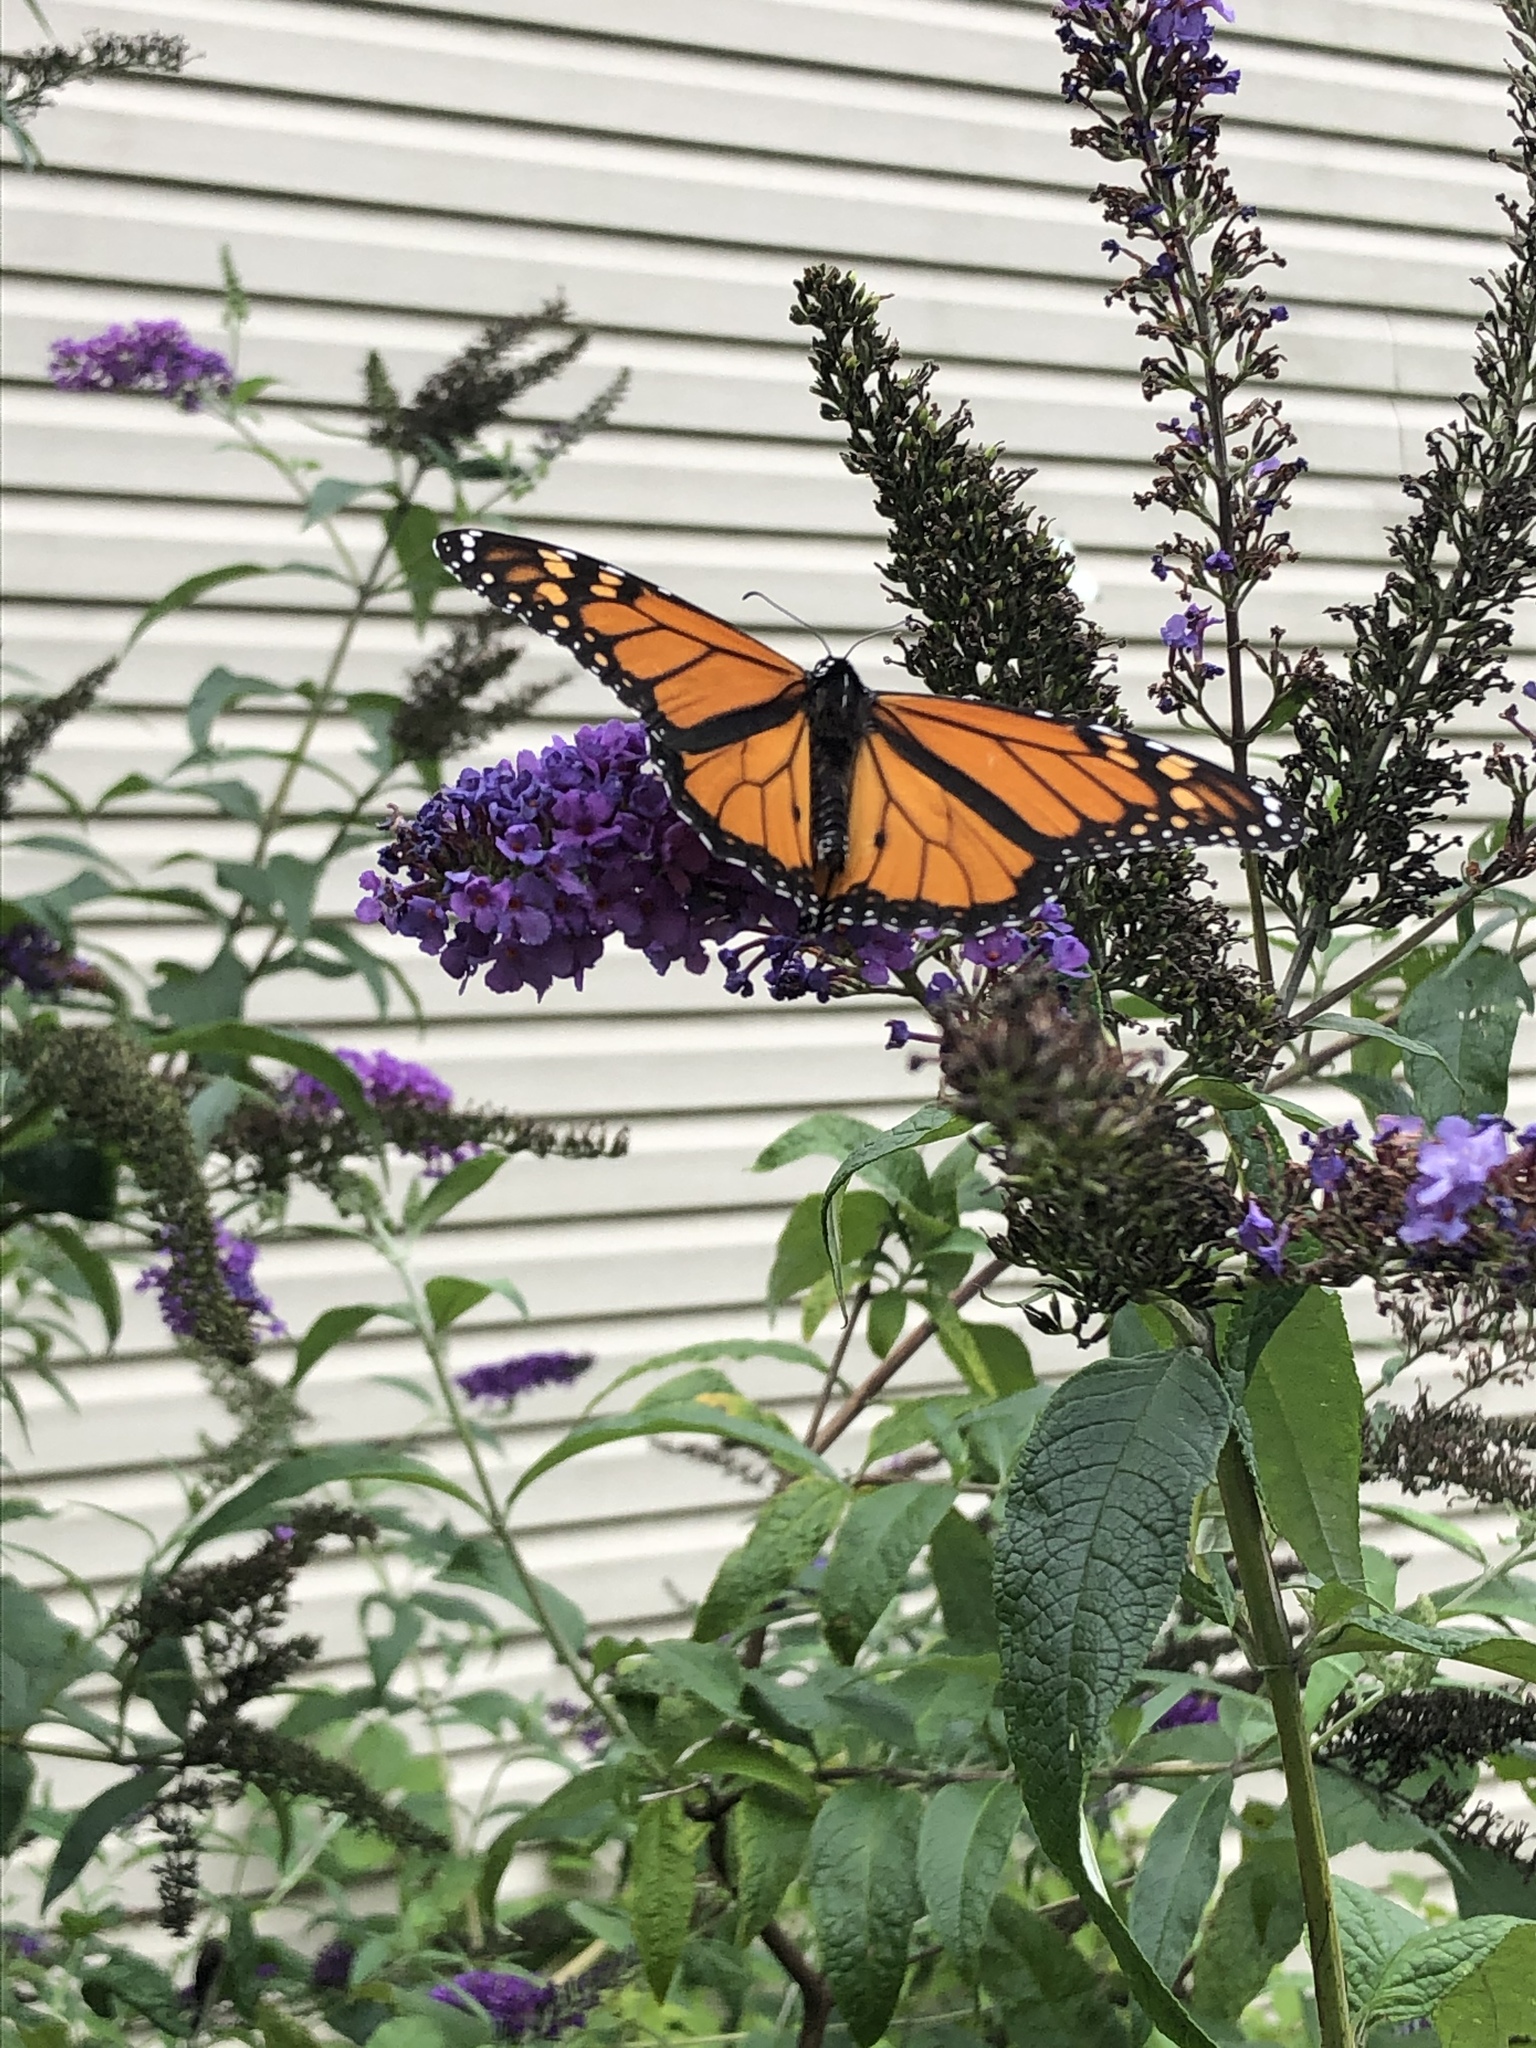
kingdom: Animalia
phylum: Arthropoda
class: Insecta
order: Lepidoptera
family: Nymphalidae
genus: Danaus
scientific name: Danaus plexippus
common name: Monarch
